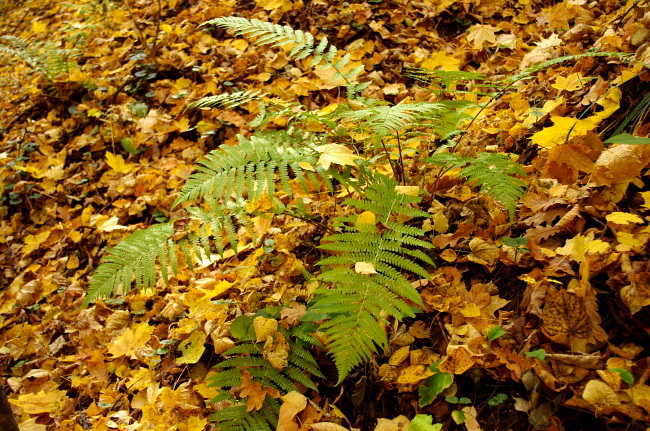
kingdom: Plantae
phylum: Tracheophyta
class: Polypodiopsida
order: Polypodiales
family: Dryopteridaceae
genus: Dryopteris
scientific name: Dryopteris filix-mas
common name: Male fern
